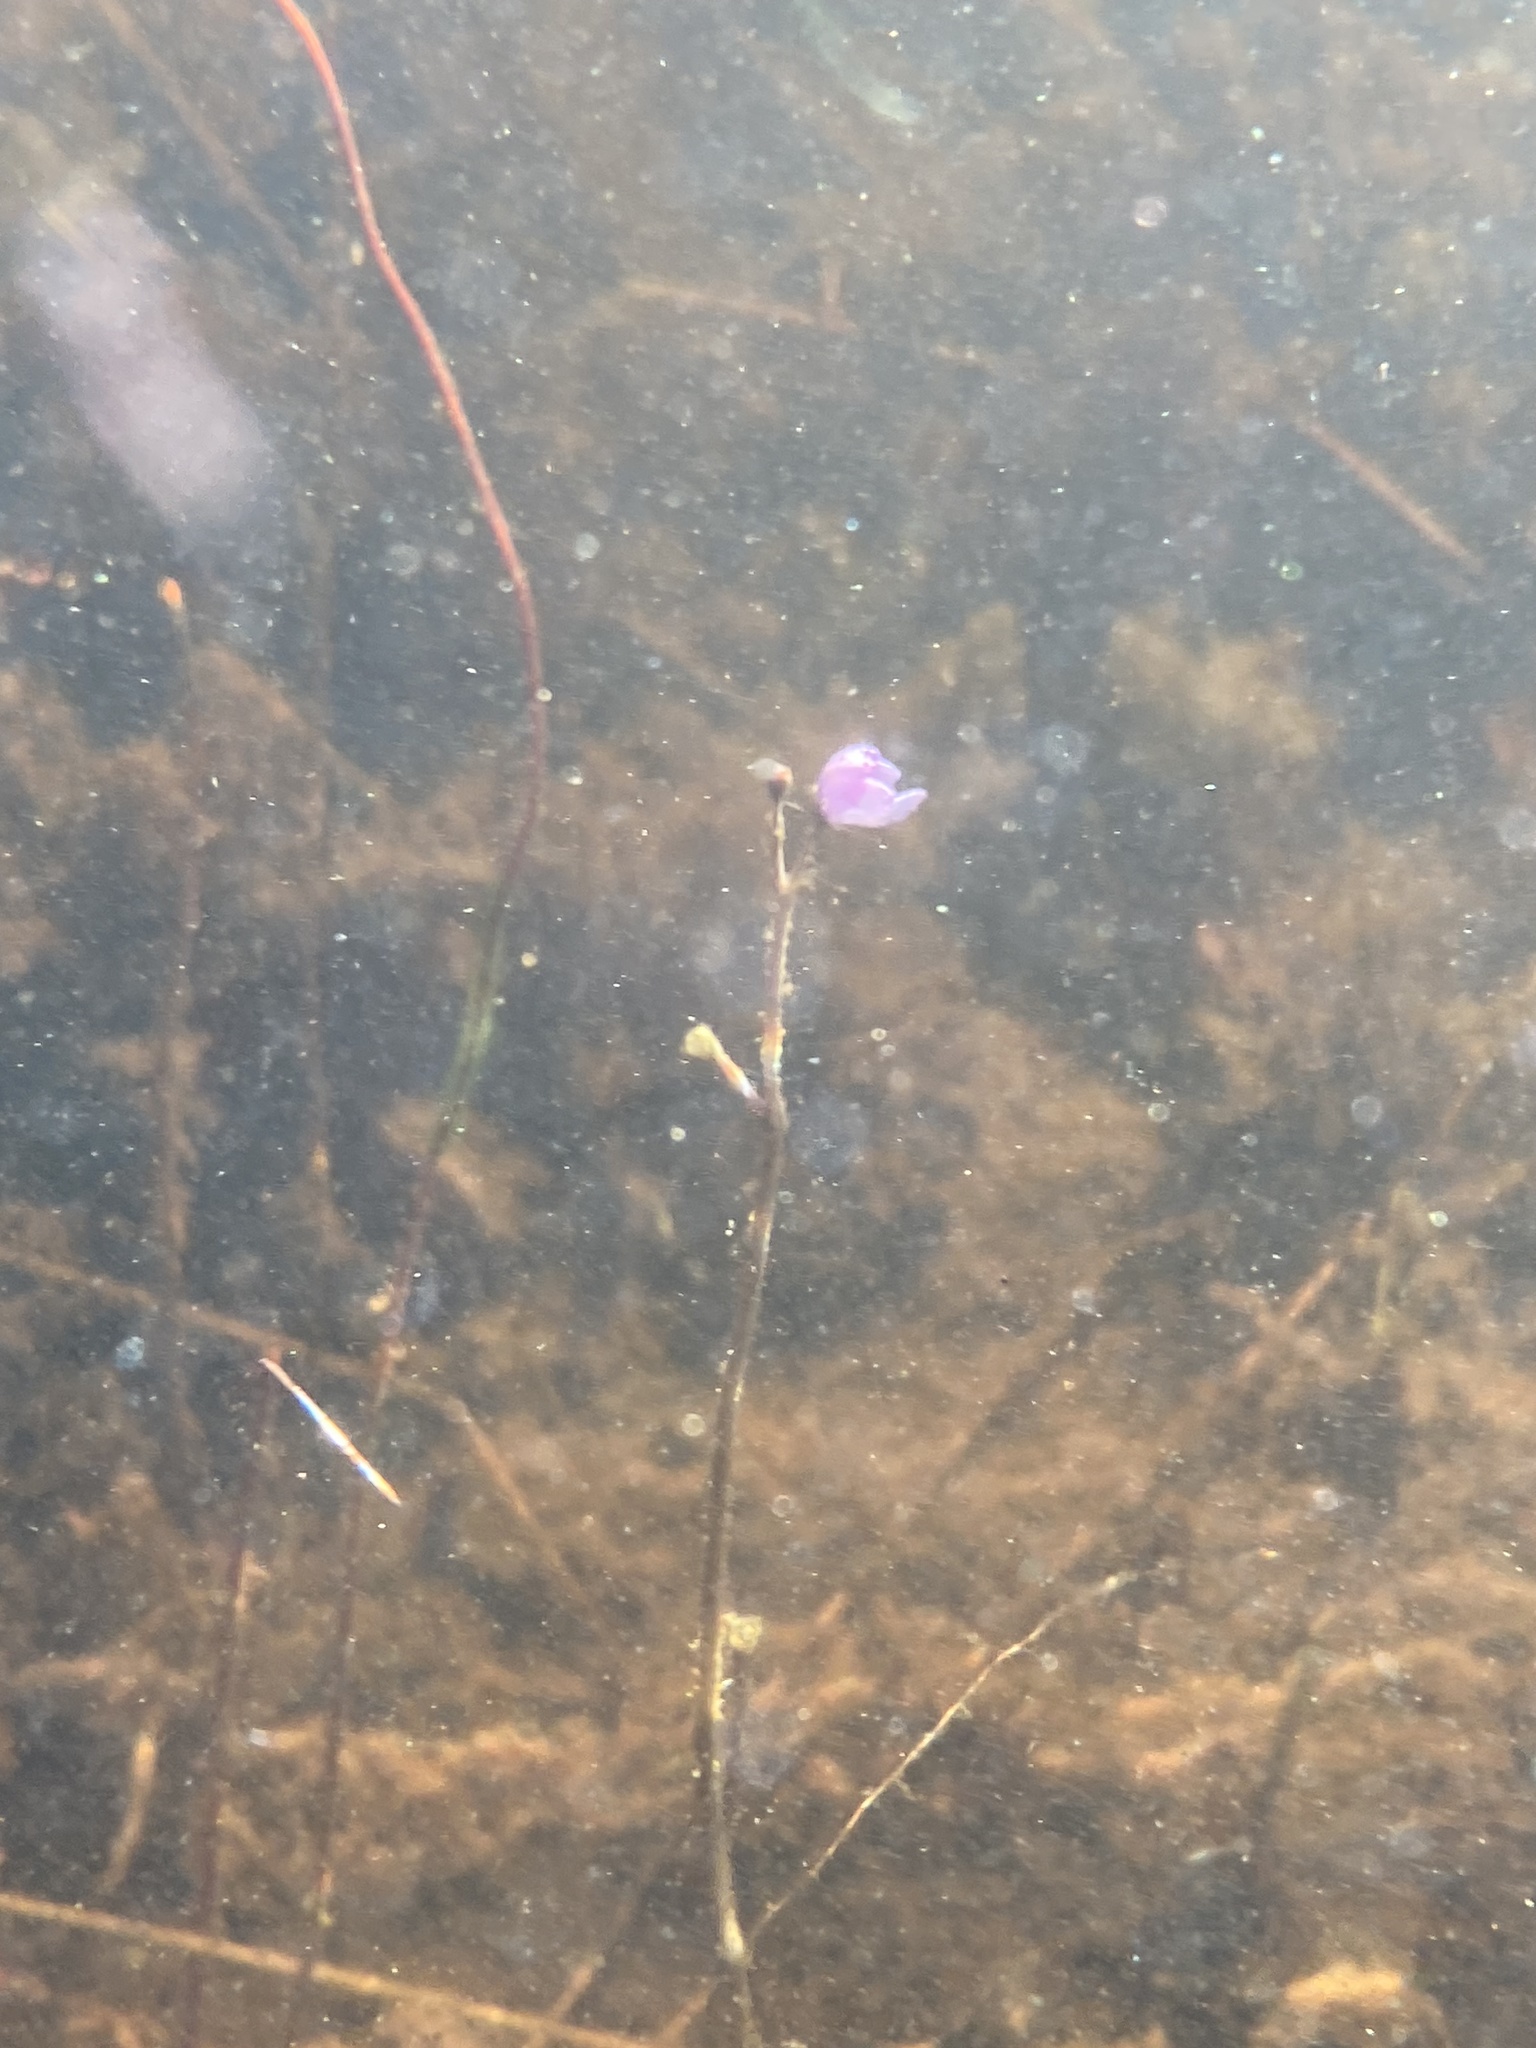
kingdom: Plantae
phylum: Tracheophyta
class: Magnoliopsida
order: Lamiales
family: Lentibulariaceae
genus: Utricularia
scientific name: Utricularia purpurea
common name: Eastern purple bladderwort
